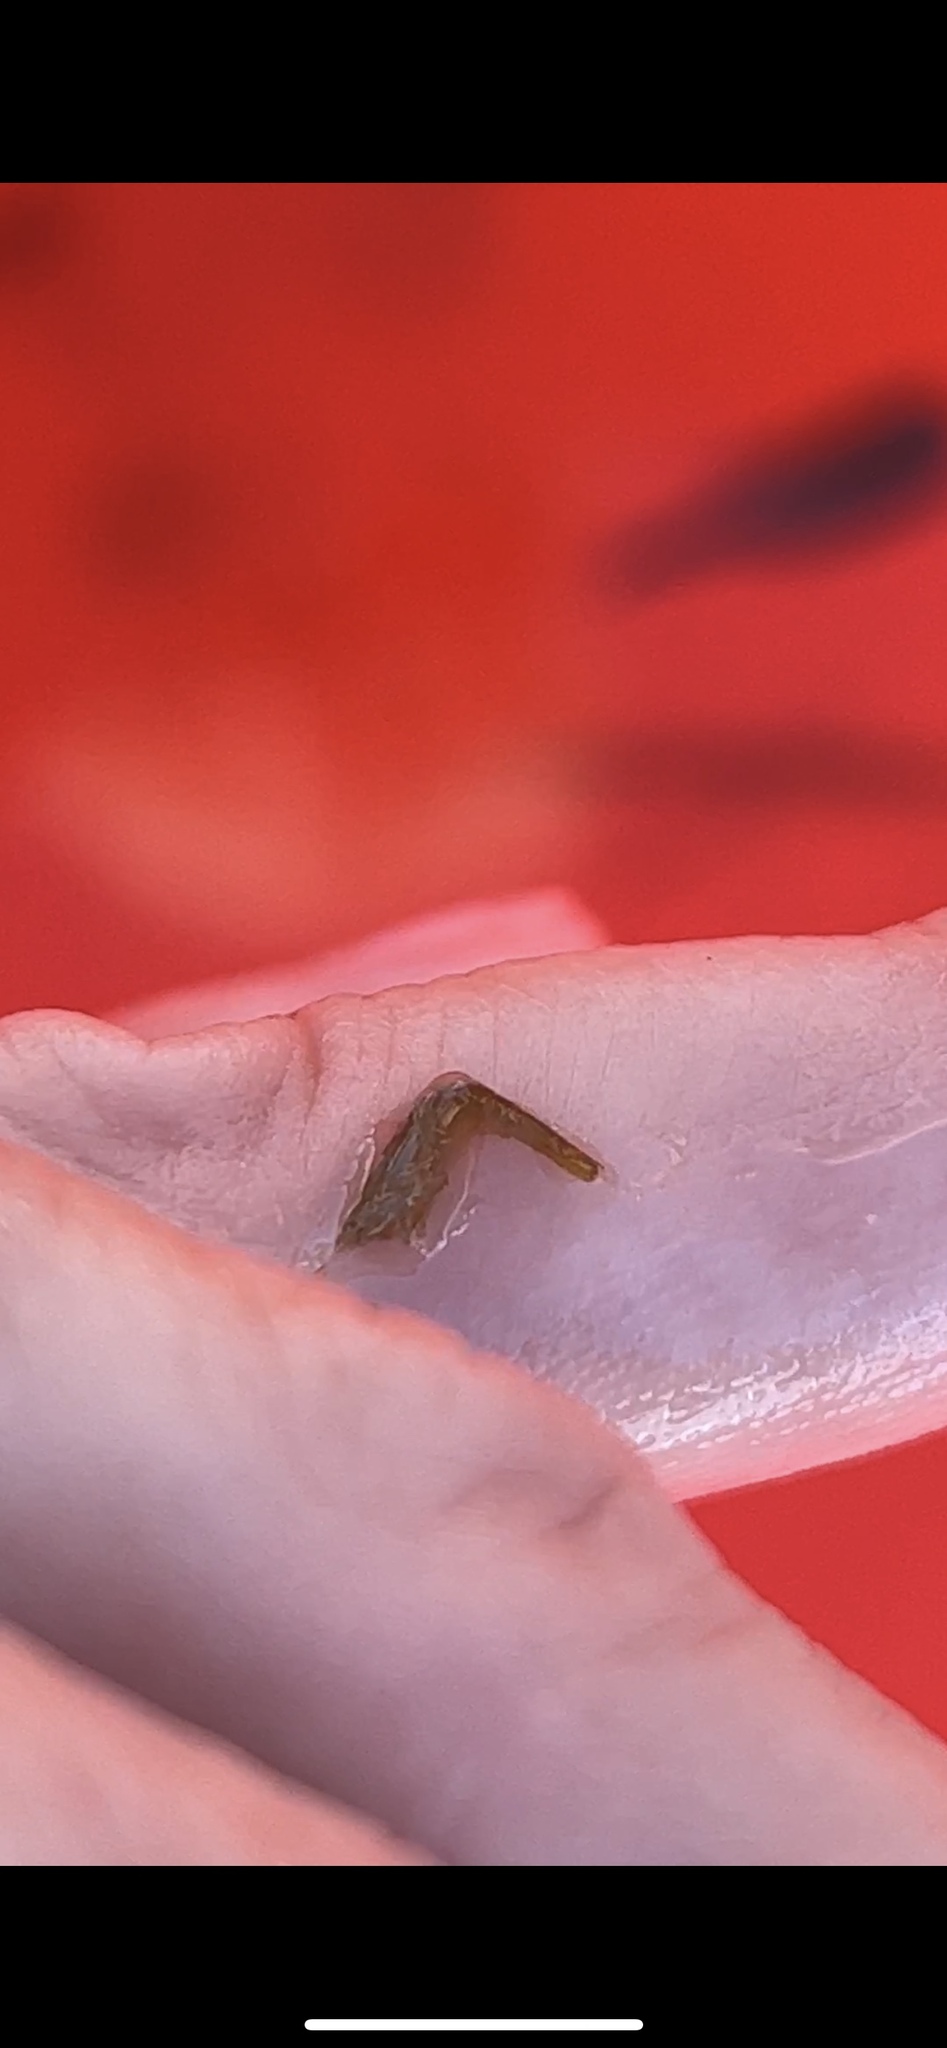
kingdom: Animalia
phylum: Arthropoda
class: Malacostraca
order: Decapoda
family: Hippolytidae
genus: Latreutes
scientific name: Latreutes fucorum
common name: Slender sargassum shrimp
